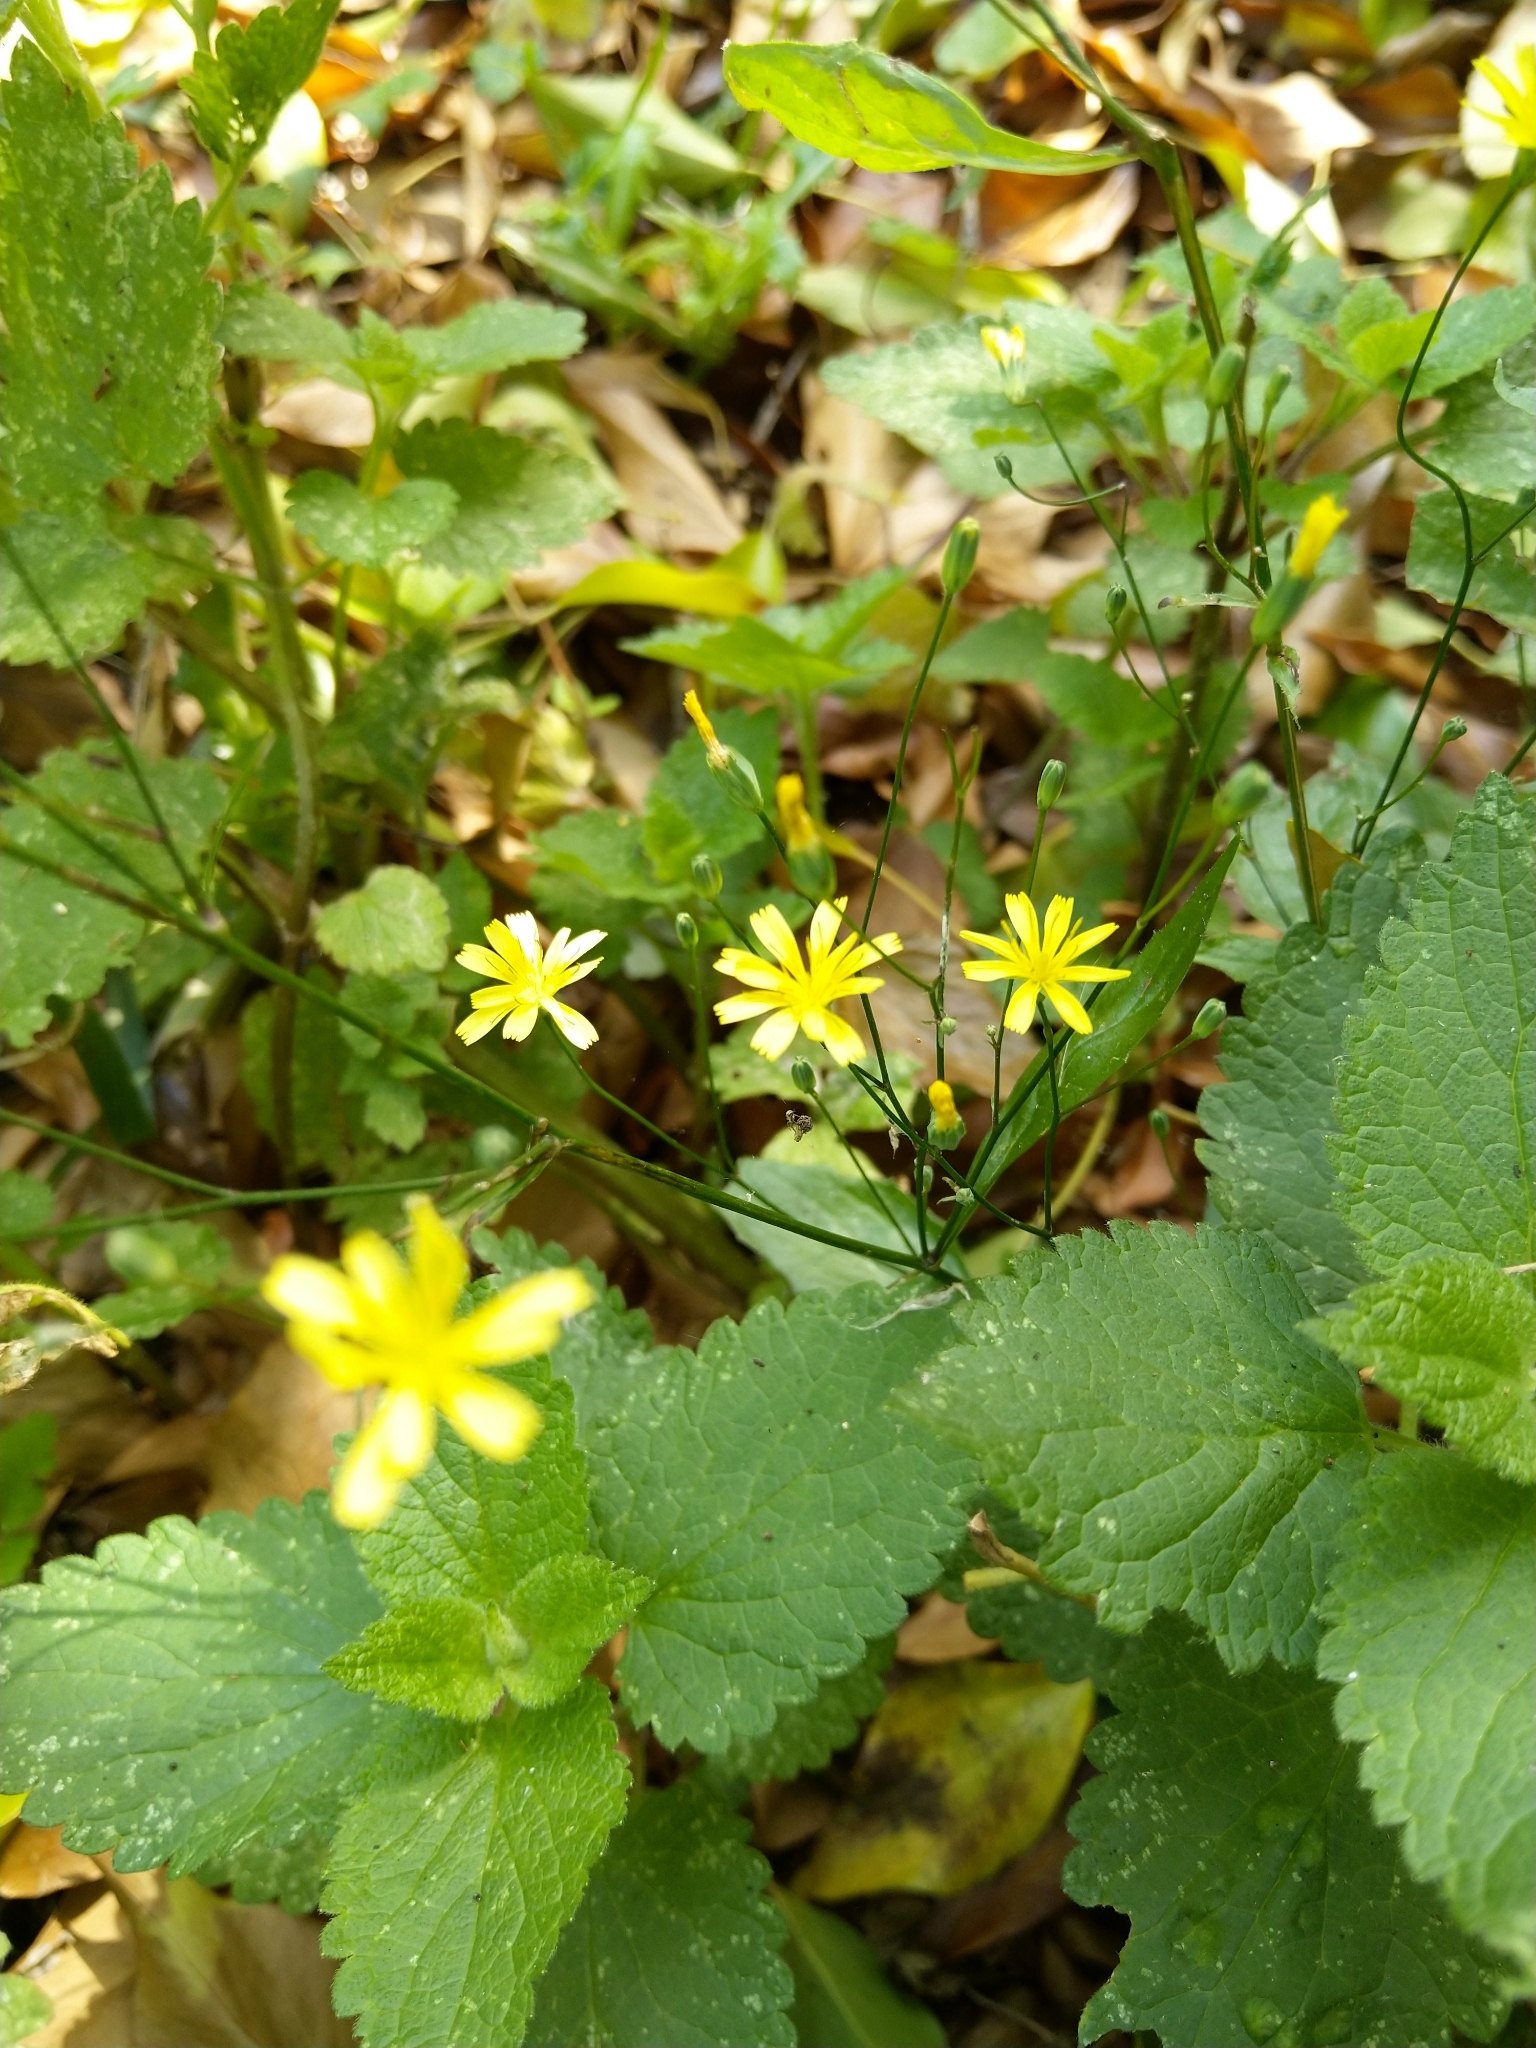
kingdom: Plantae
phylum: Tracheophyta
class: Magnoliopsida
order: Asterales
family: Asteraceae
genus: Lapsana
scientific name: Lapsana communis
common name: Nipplewort
